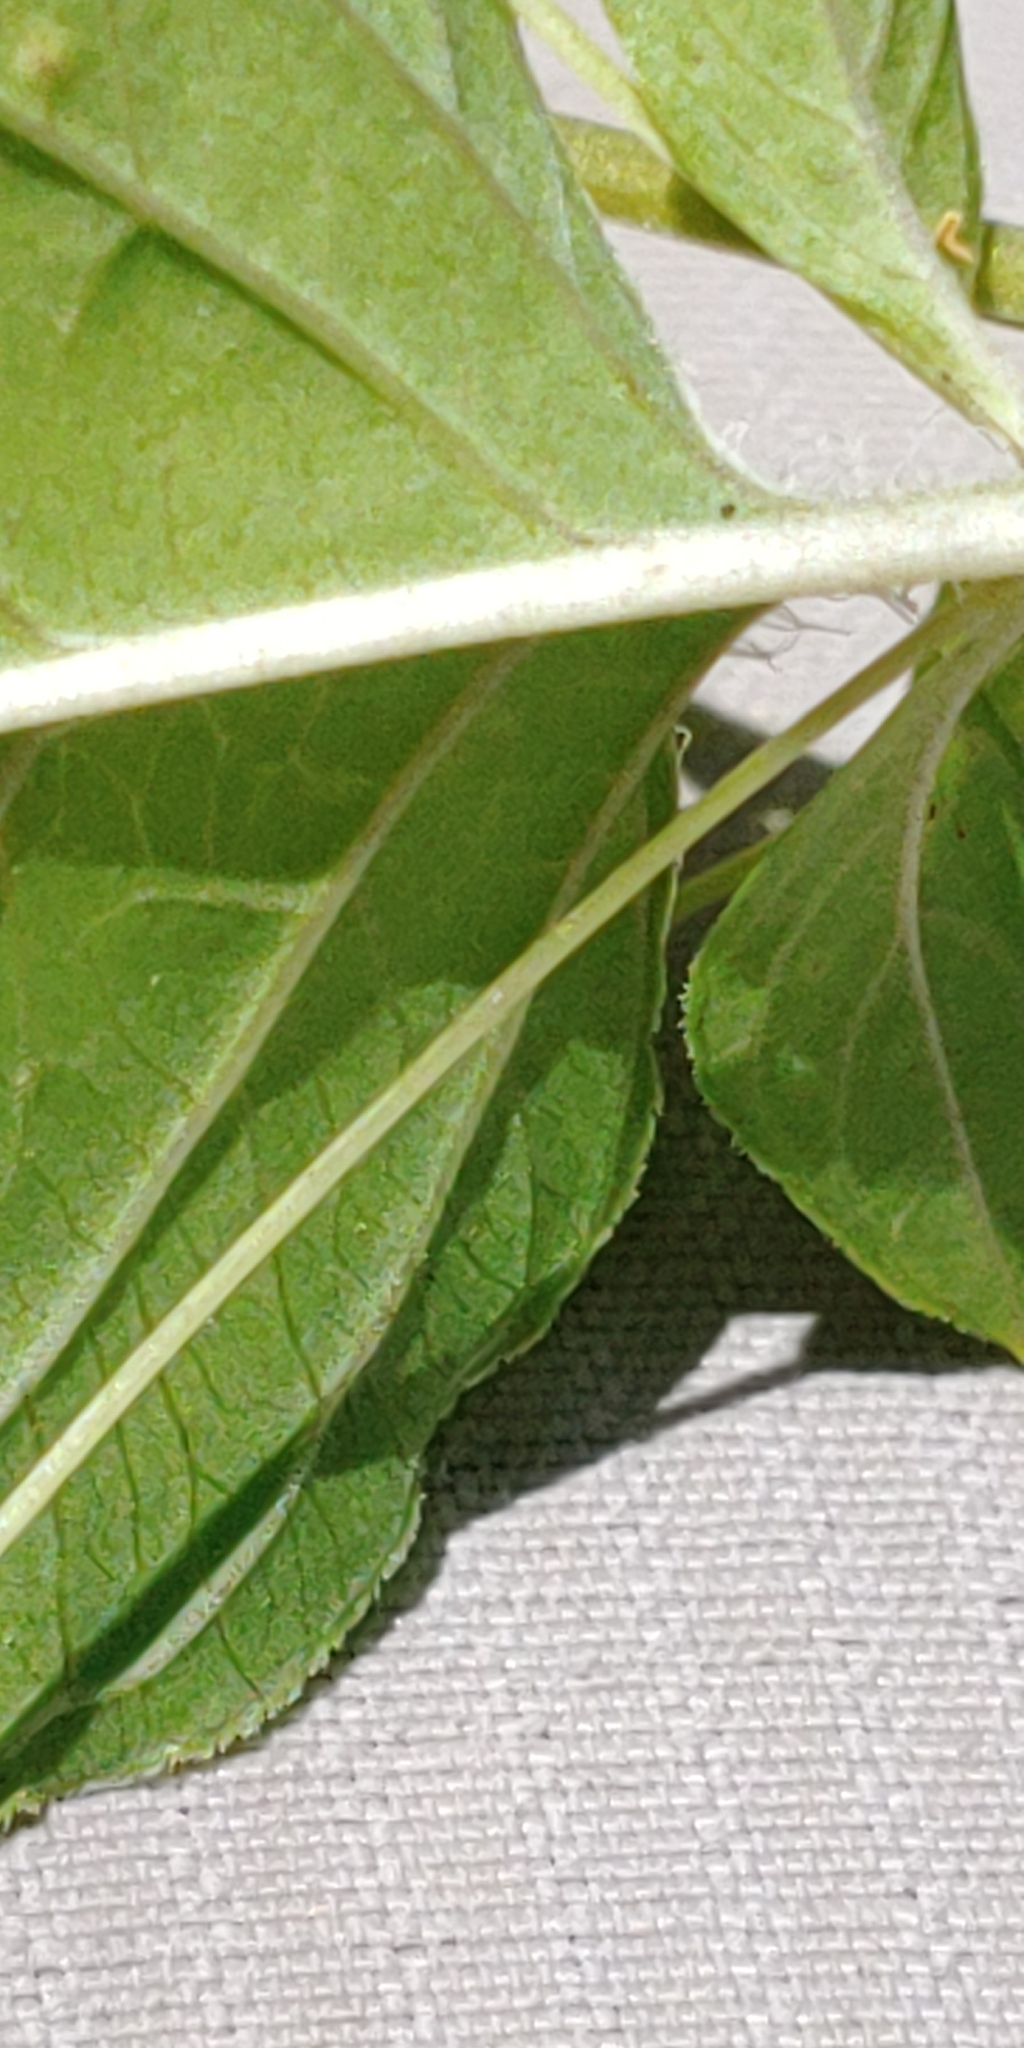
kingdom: Plantae
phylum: Tracheophyta
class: Magnoliopsida
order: Ericales
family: Primulaceae
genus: Lysimachia
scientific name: Lysimachia ciliata
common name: Fringed loosestrife
